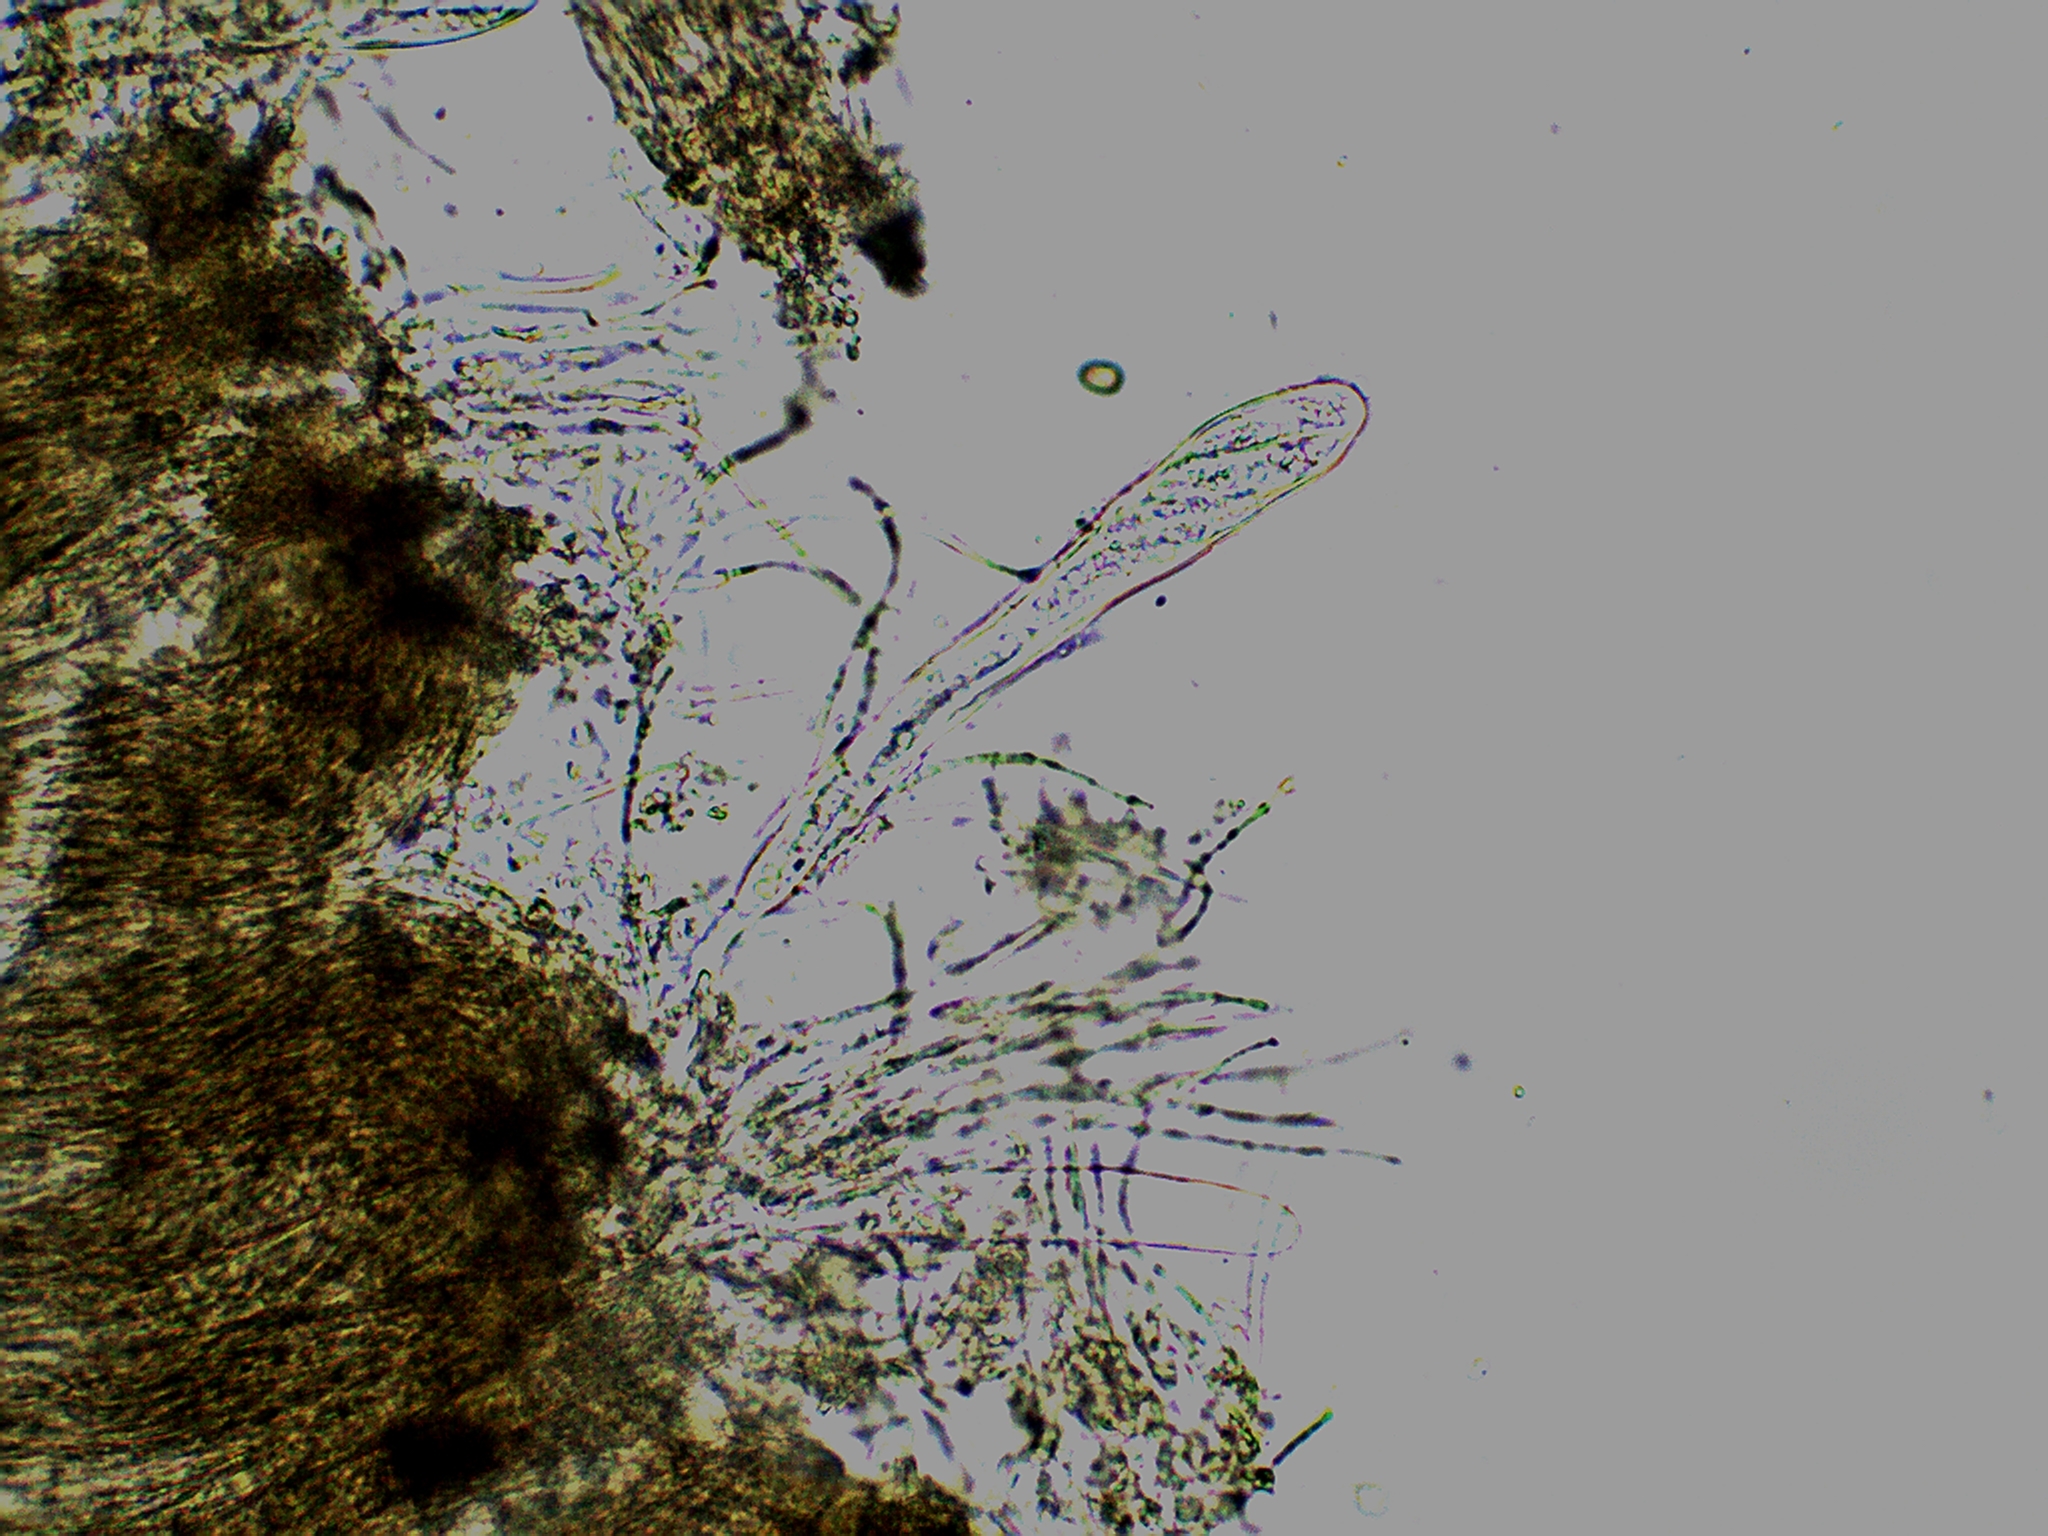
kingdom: Fungi
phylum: Ascomycota
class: Leotiomycetes
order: Chaetomellales
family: Marthamycetaceae
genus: Propolis
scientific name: Propolis farinosa
